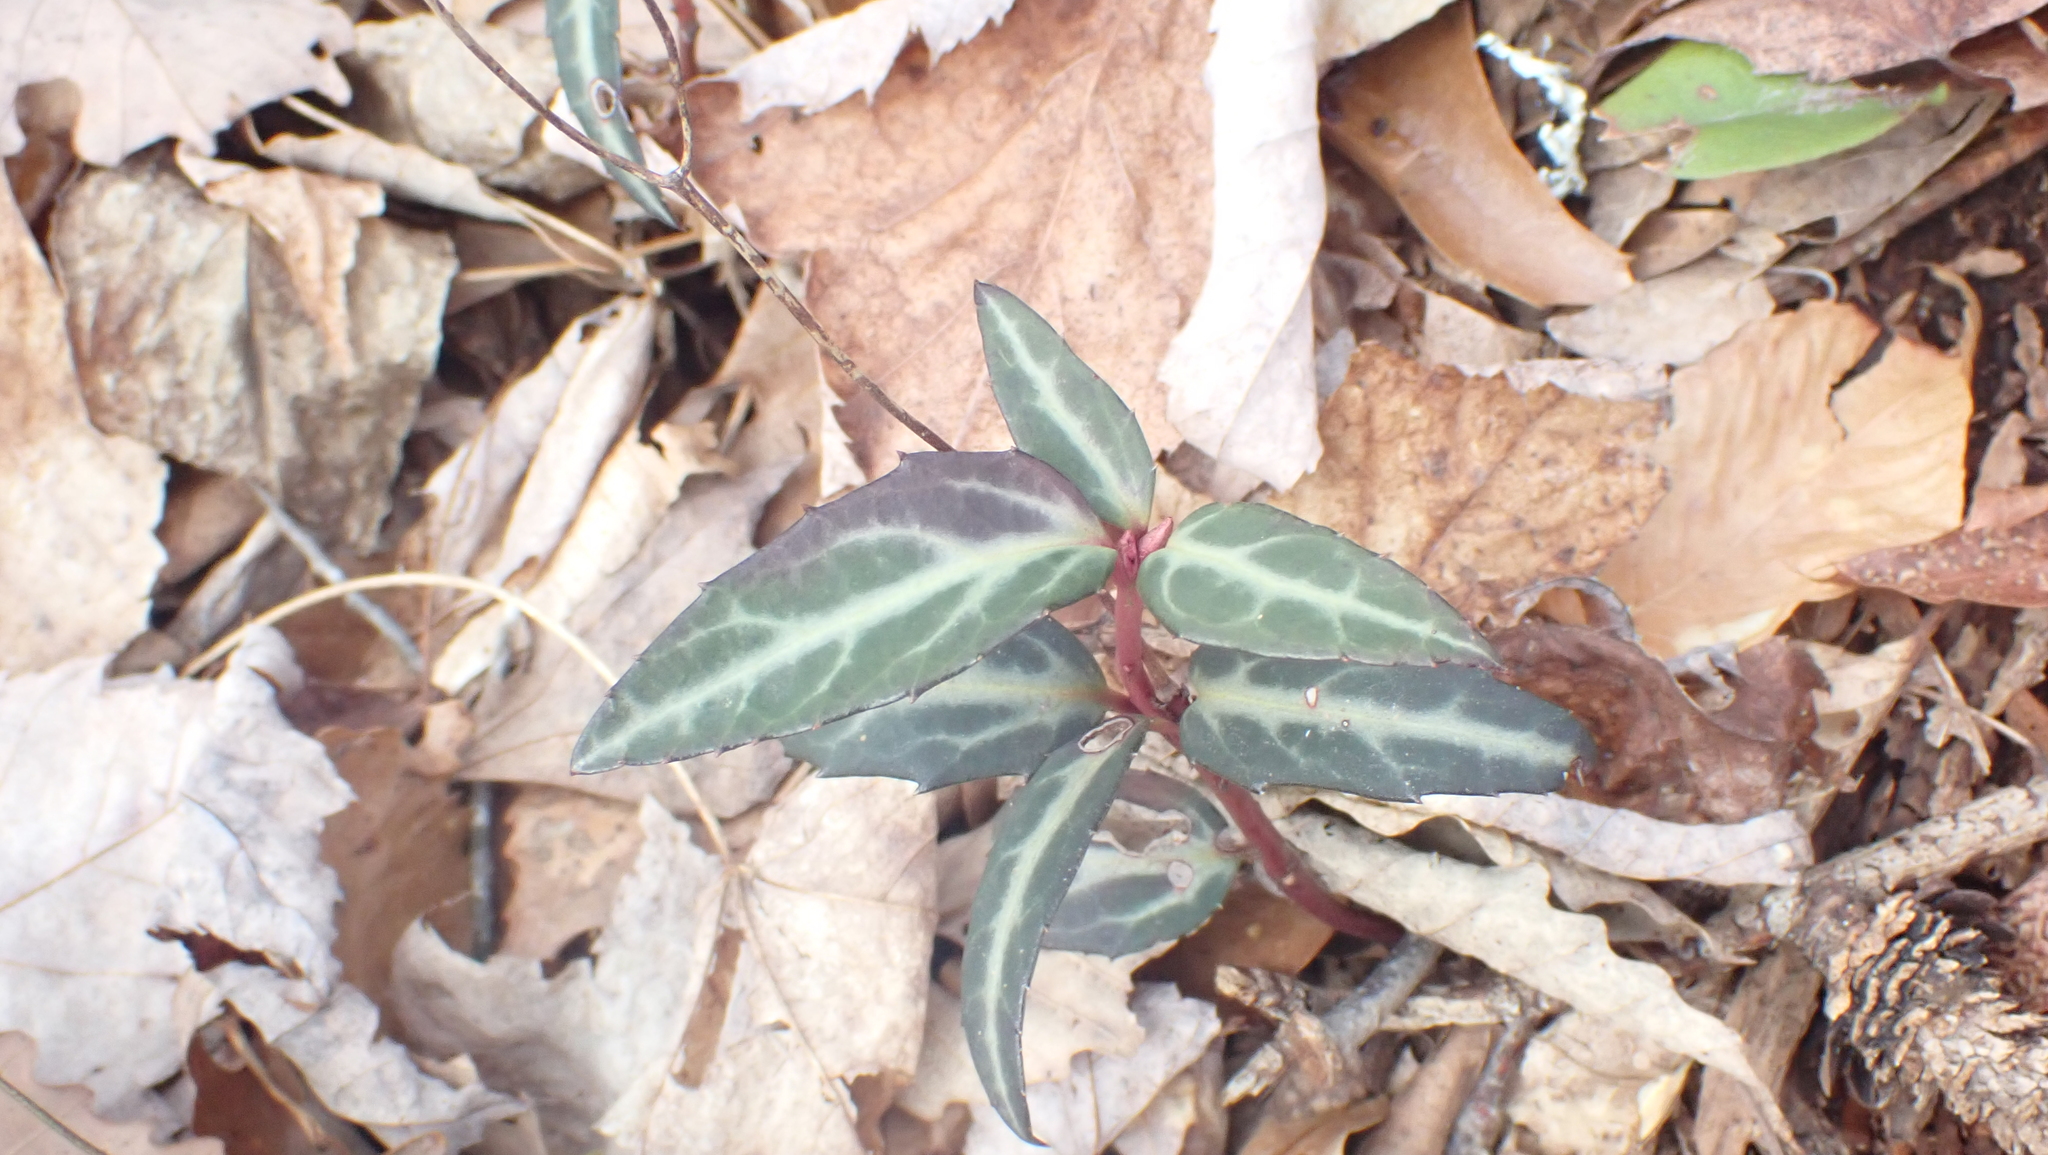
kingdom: Plantae
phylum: Tracheophyta
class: Magnoliopsida
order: Ericales
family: Ericaceae
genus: Chimaphila
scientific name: Chimaphila maculata
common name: Spotted pipsissewa
